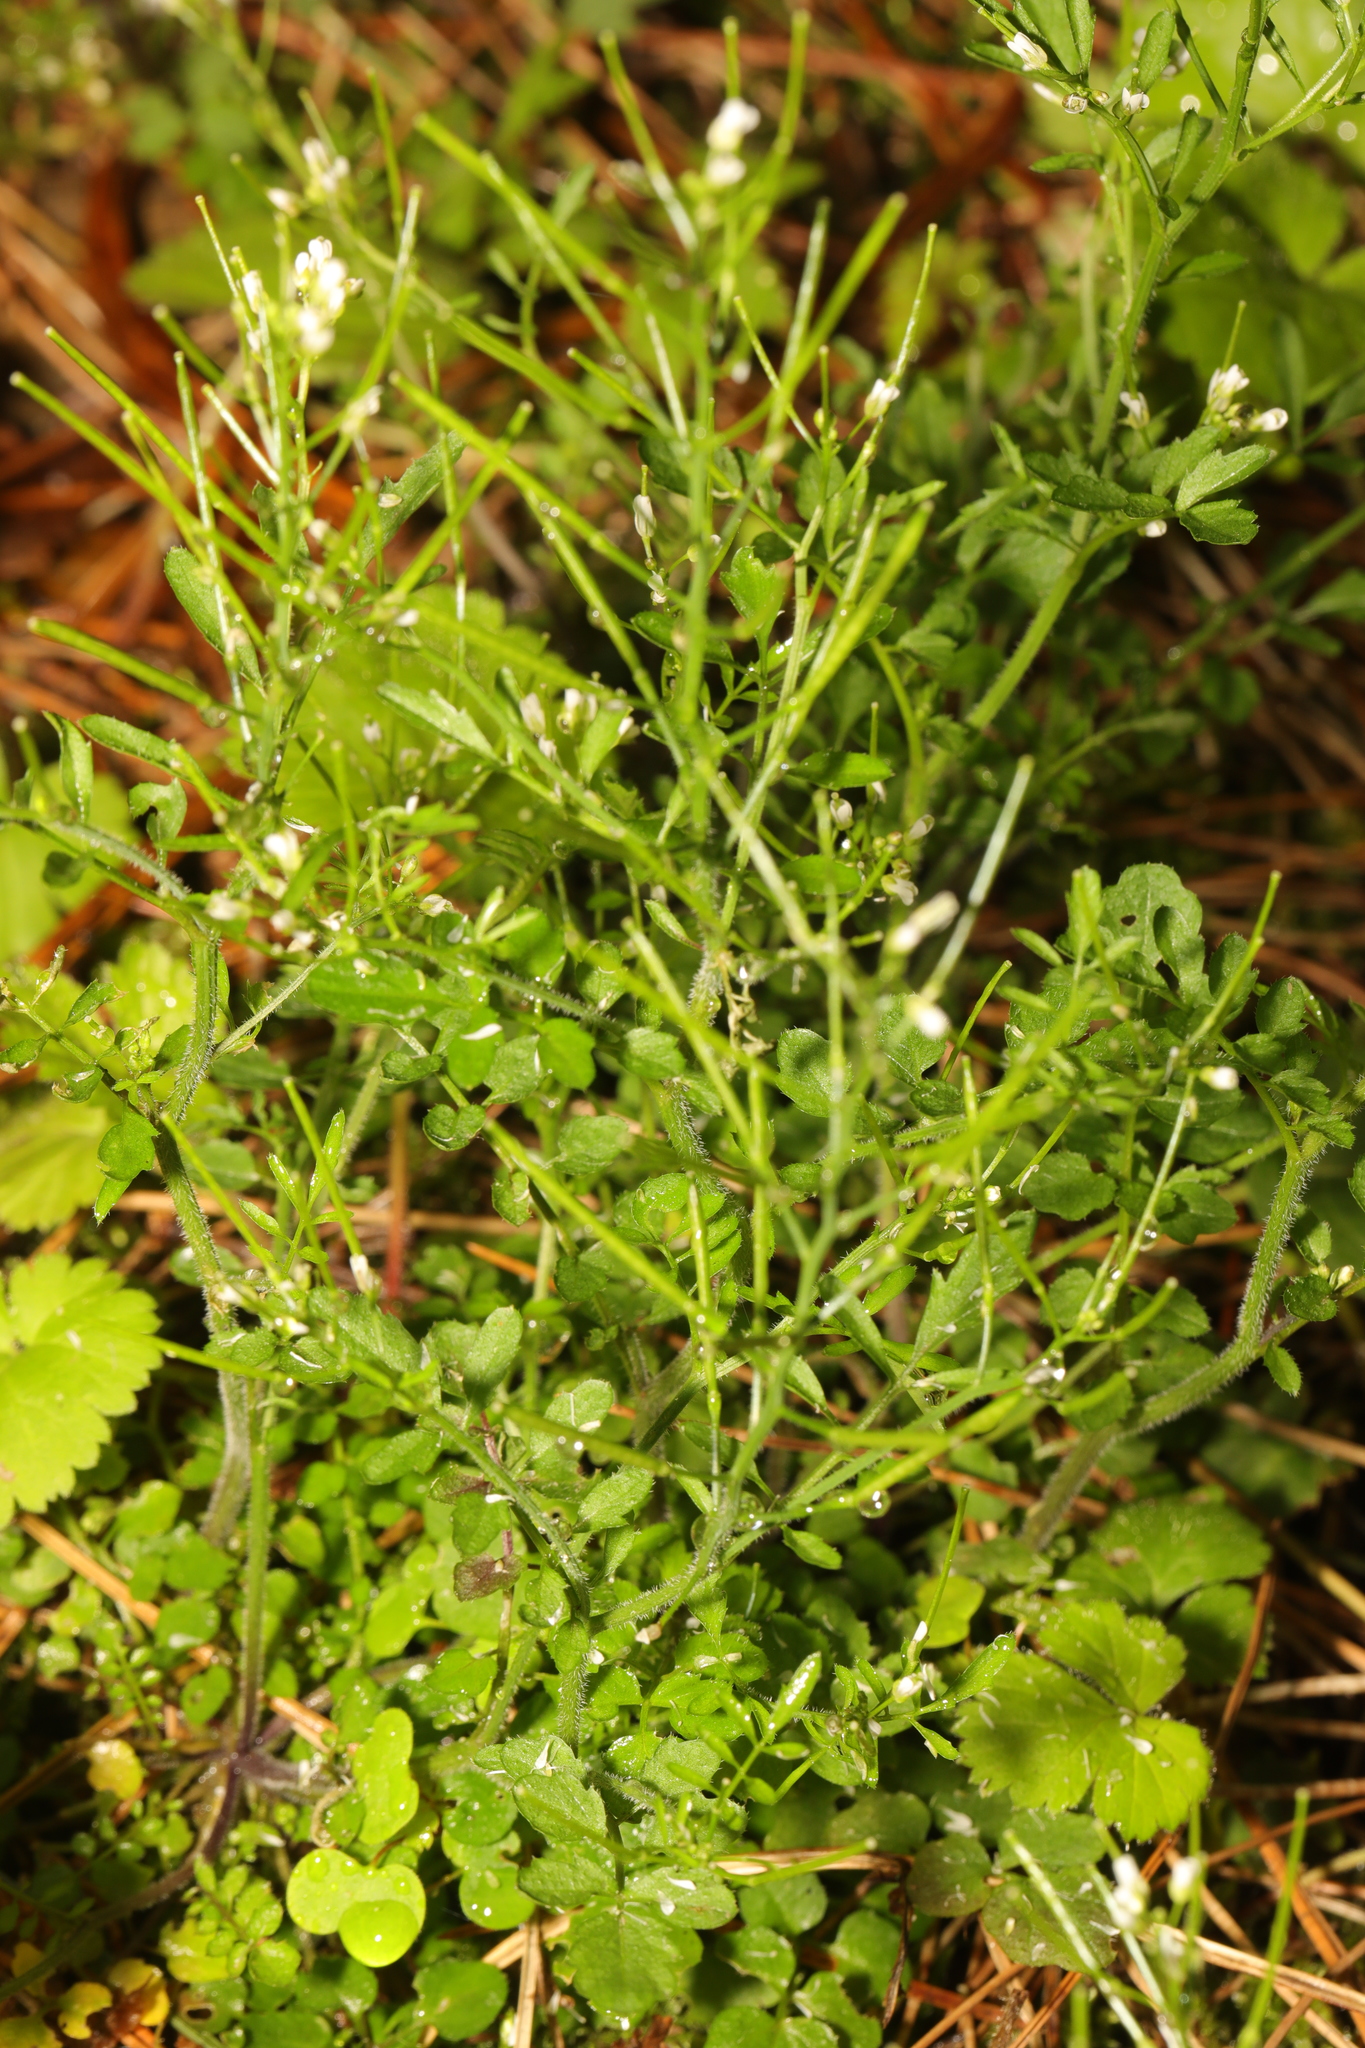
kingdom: Plantae
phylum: Tracheophyta
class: Magnoliopsida
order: Brassicales
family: Brassicaceae
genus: Cardamine
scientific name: Cardamine flexuosa
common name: Woodland bittercress
